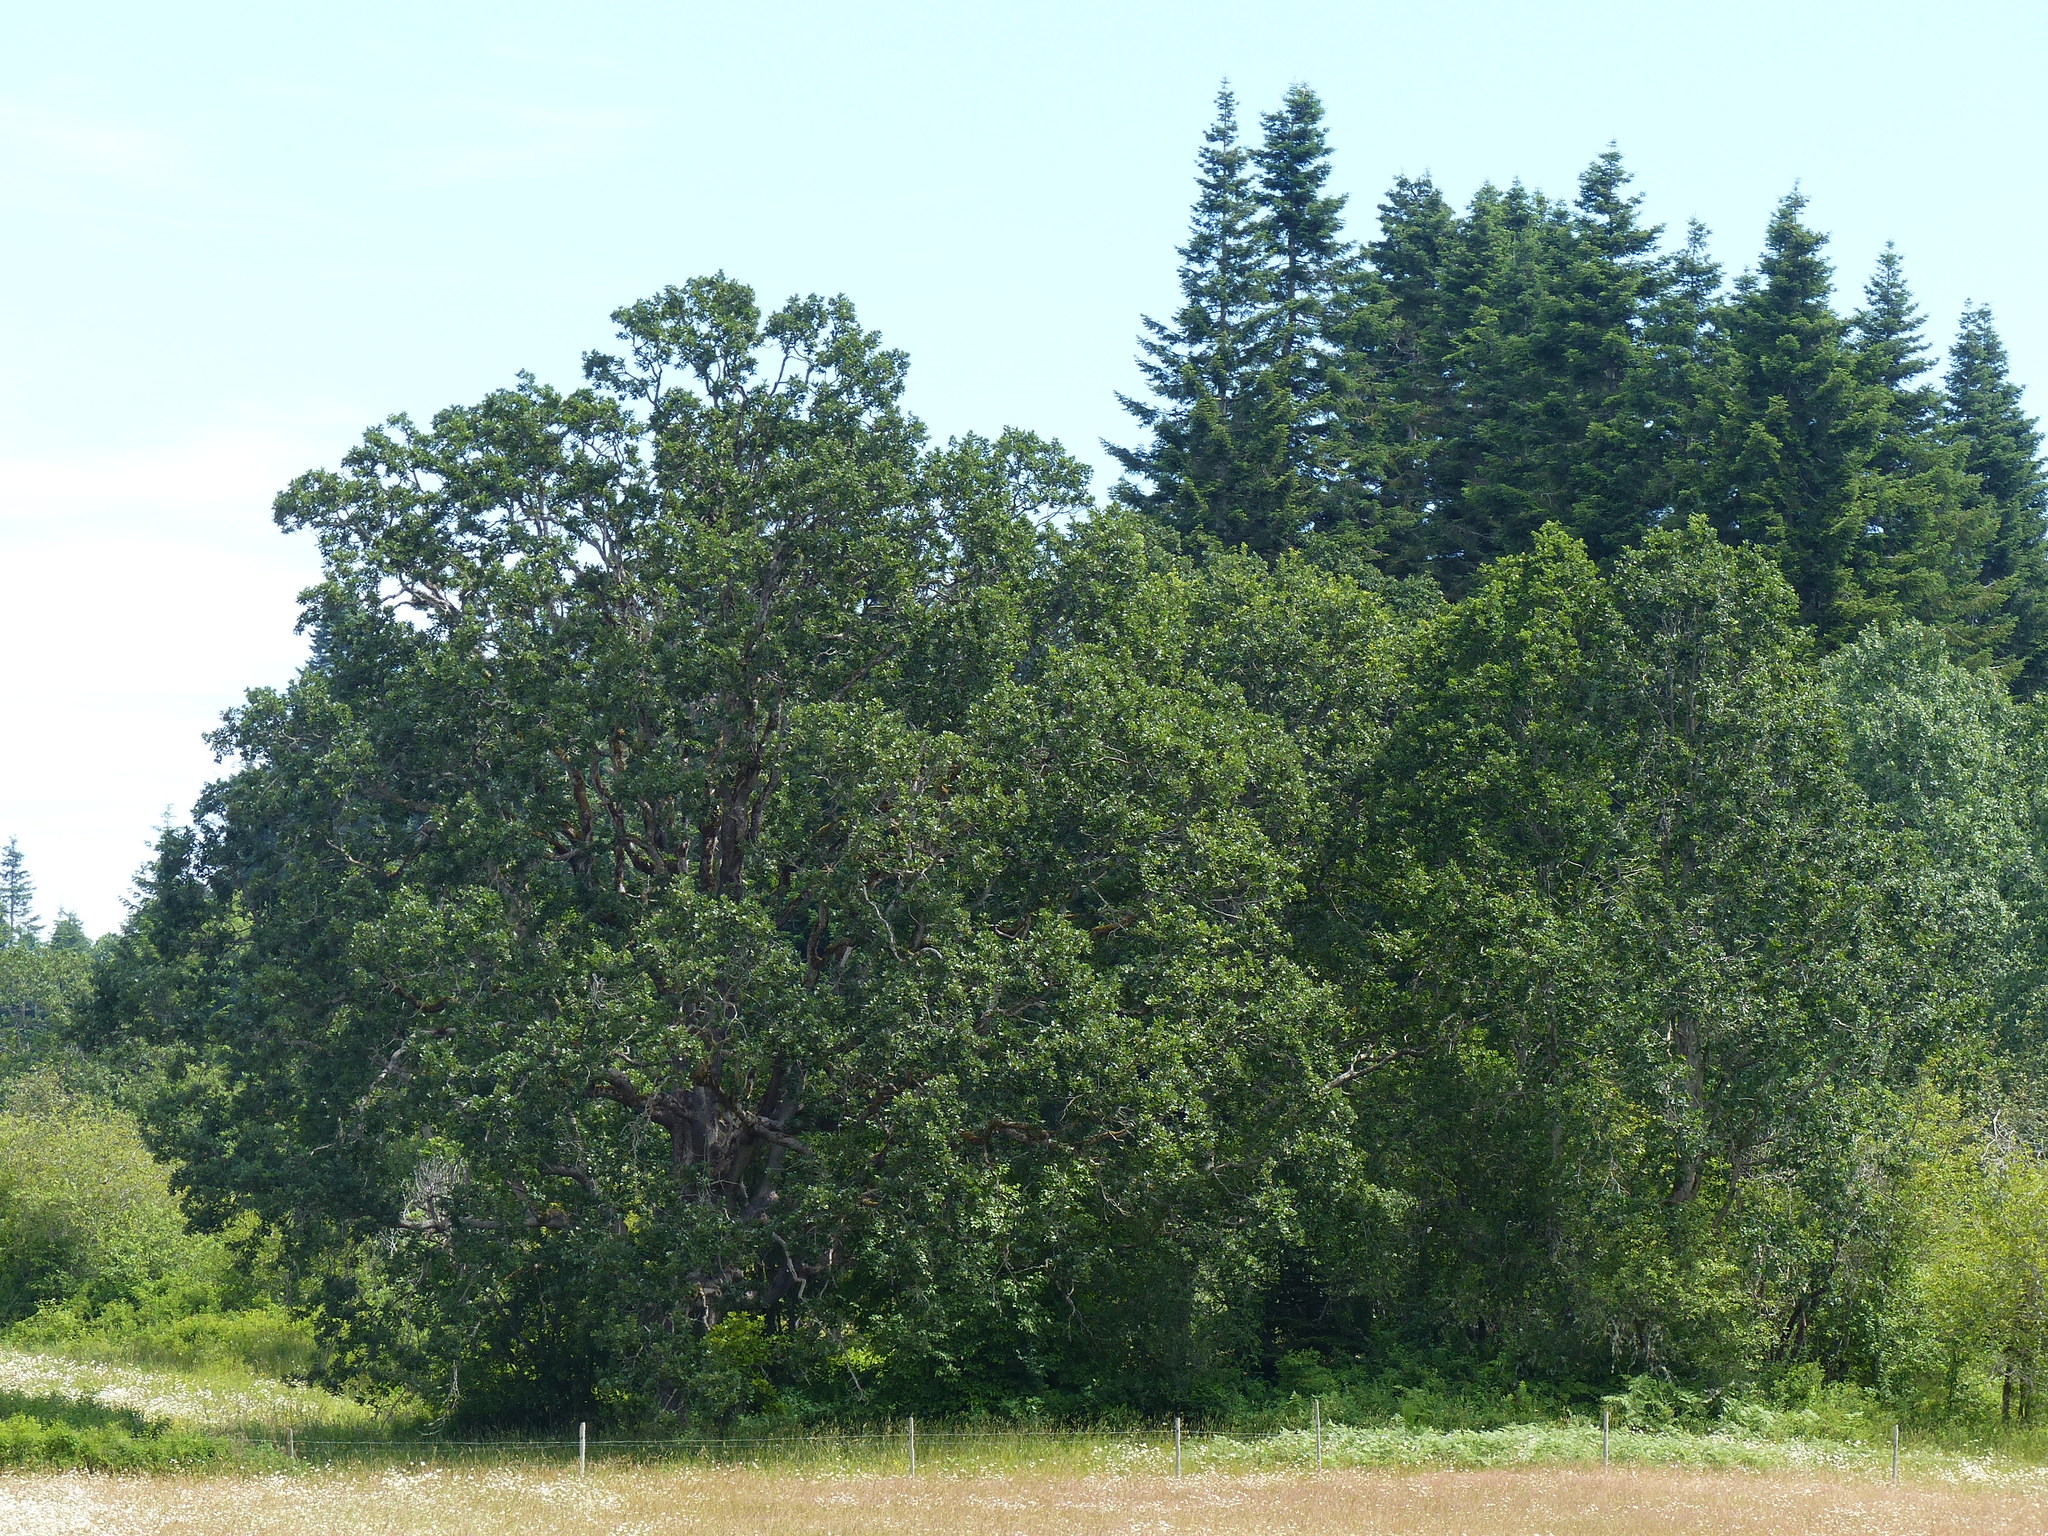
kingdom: Plantae
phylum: Tracheophyta
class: Magnoliopsida
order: Fagales
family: Fagaceae
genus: Quercus
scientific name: Quercus garryana
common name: Garry oak
